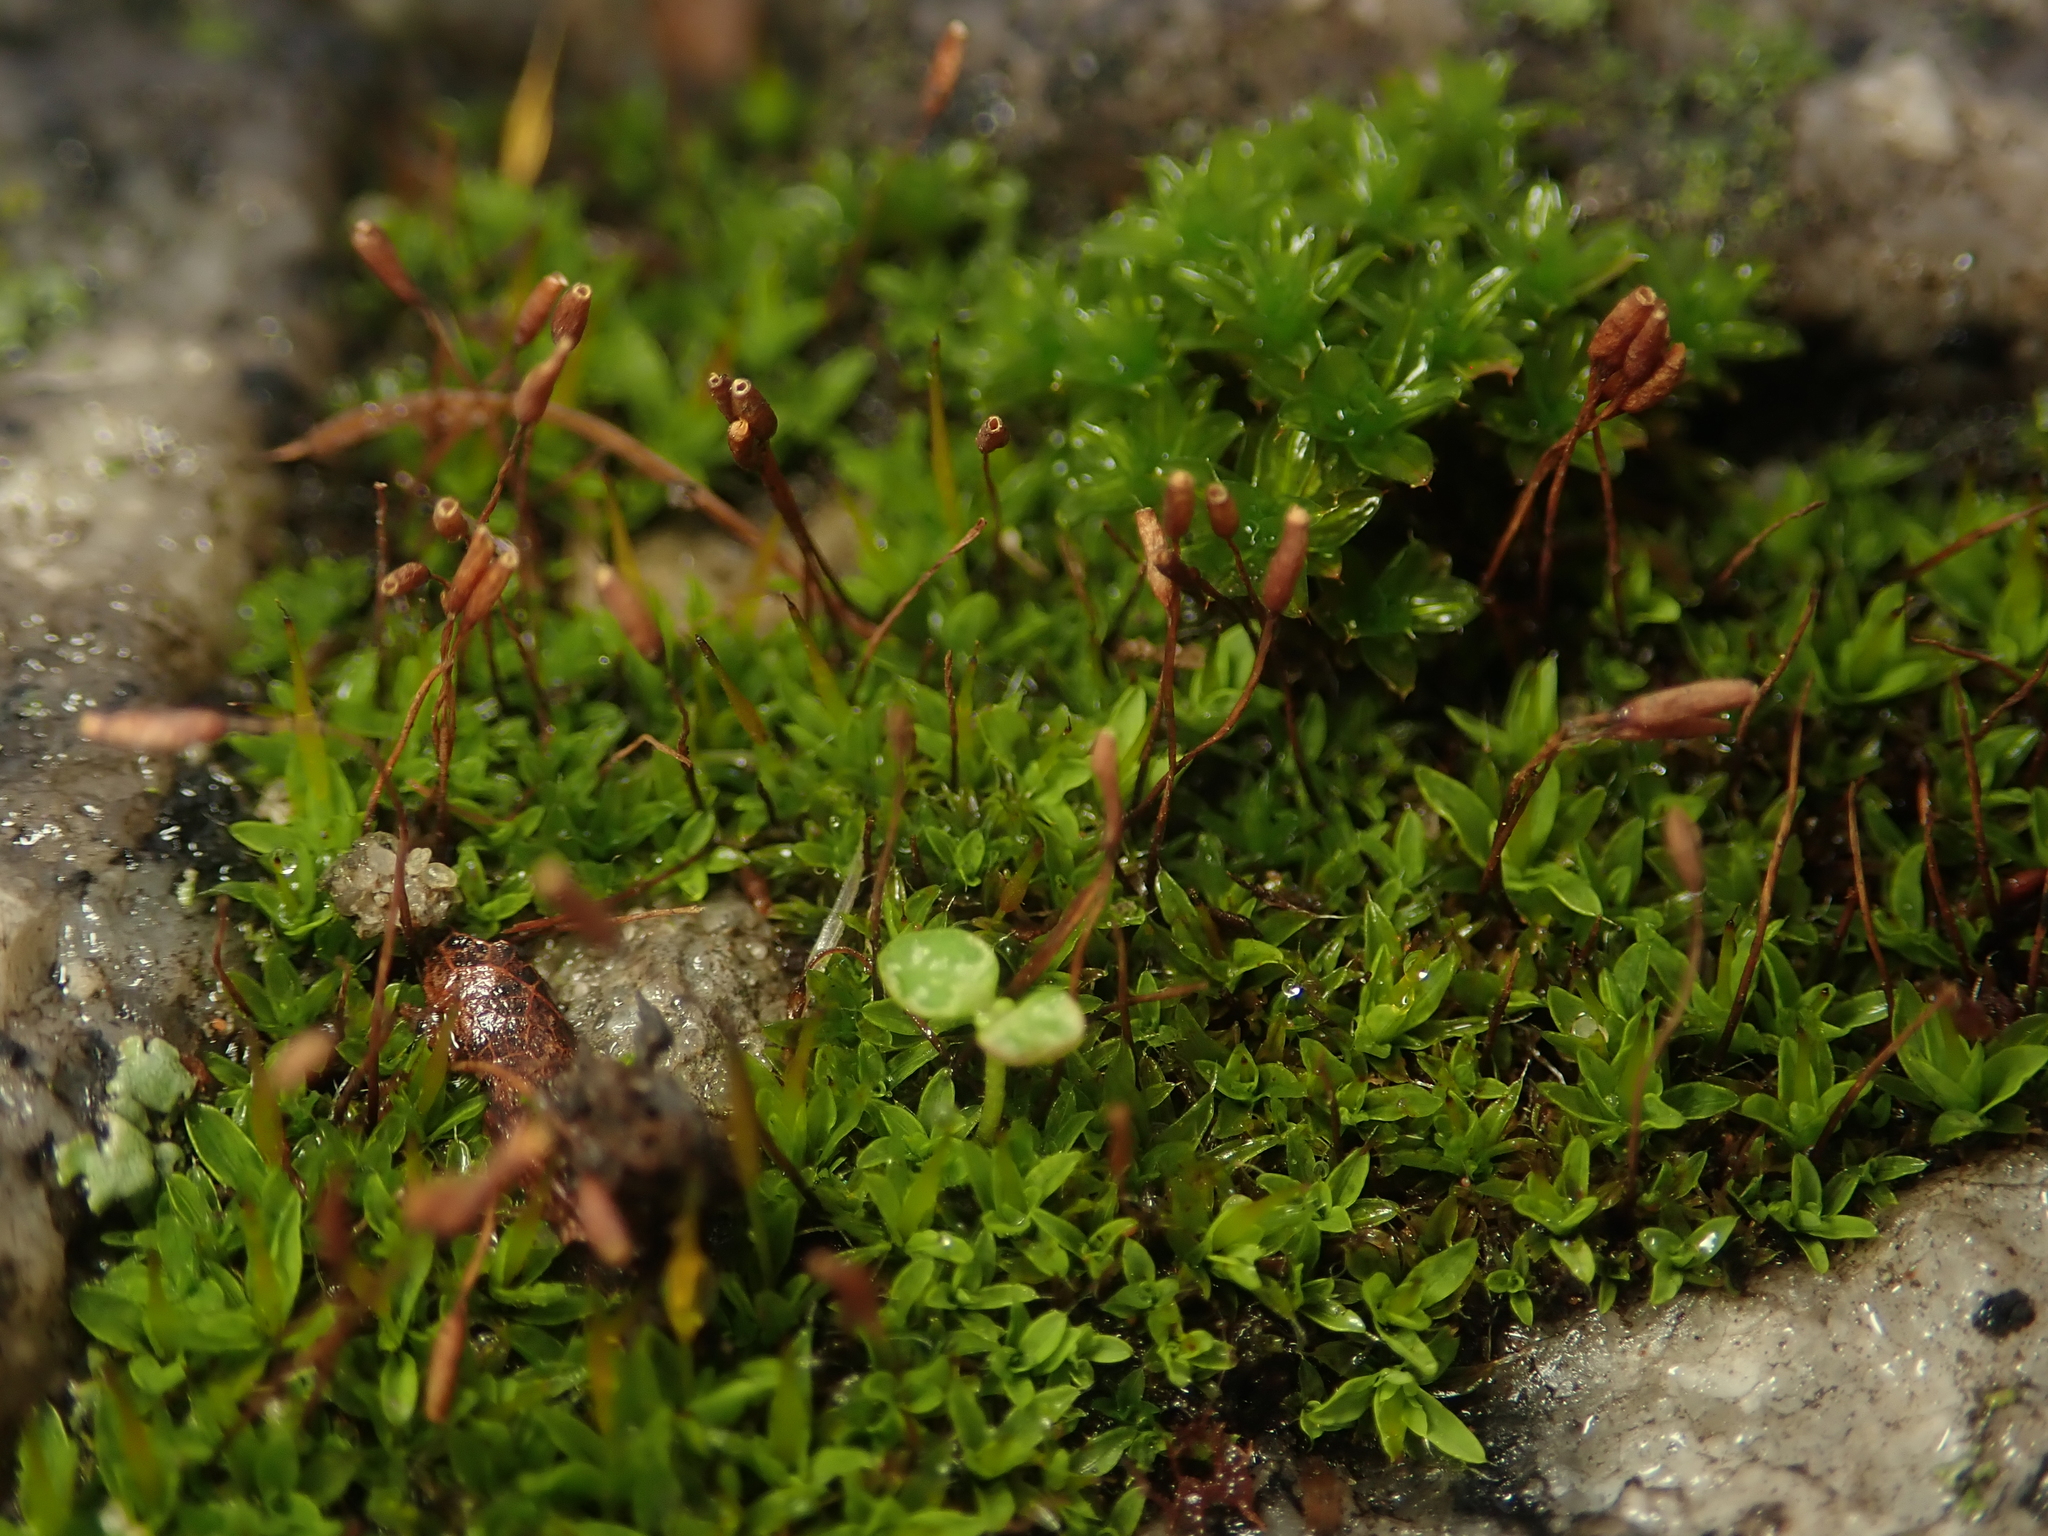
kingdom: Plantae
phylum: Bryophyta
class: Bryopsida
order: Pottiales
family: Pottiaceae
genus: Tortula
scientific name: Tortula muralis
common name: Wall screw-moss
